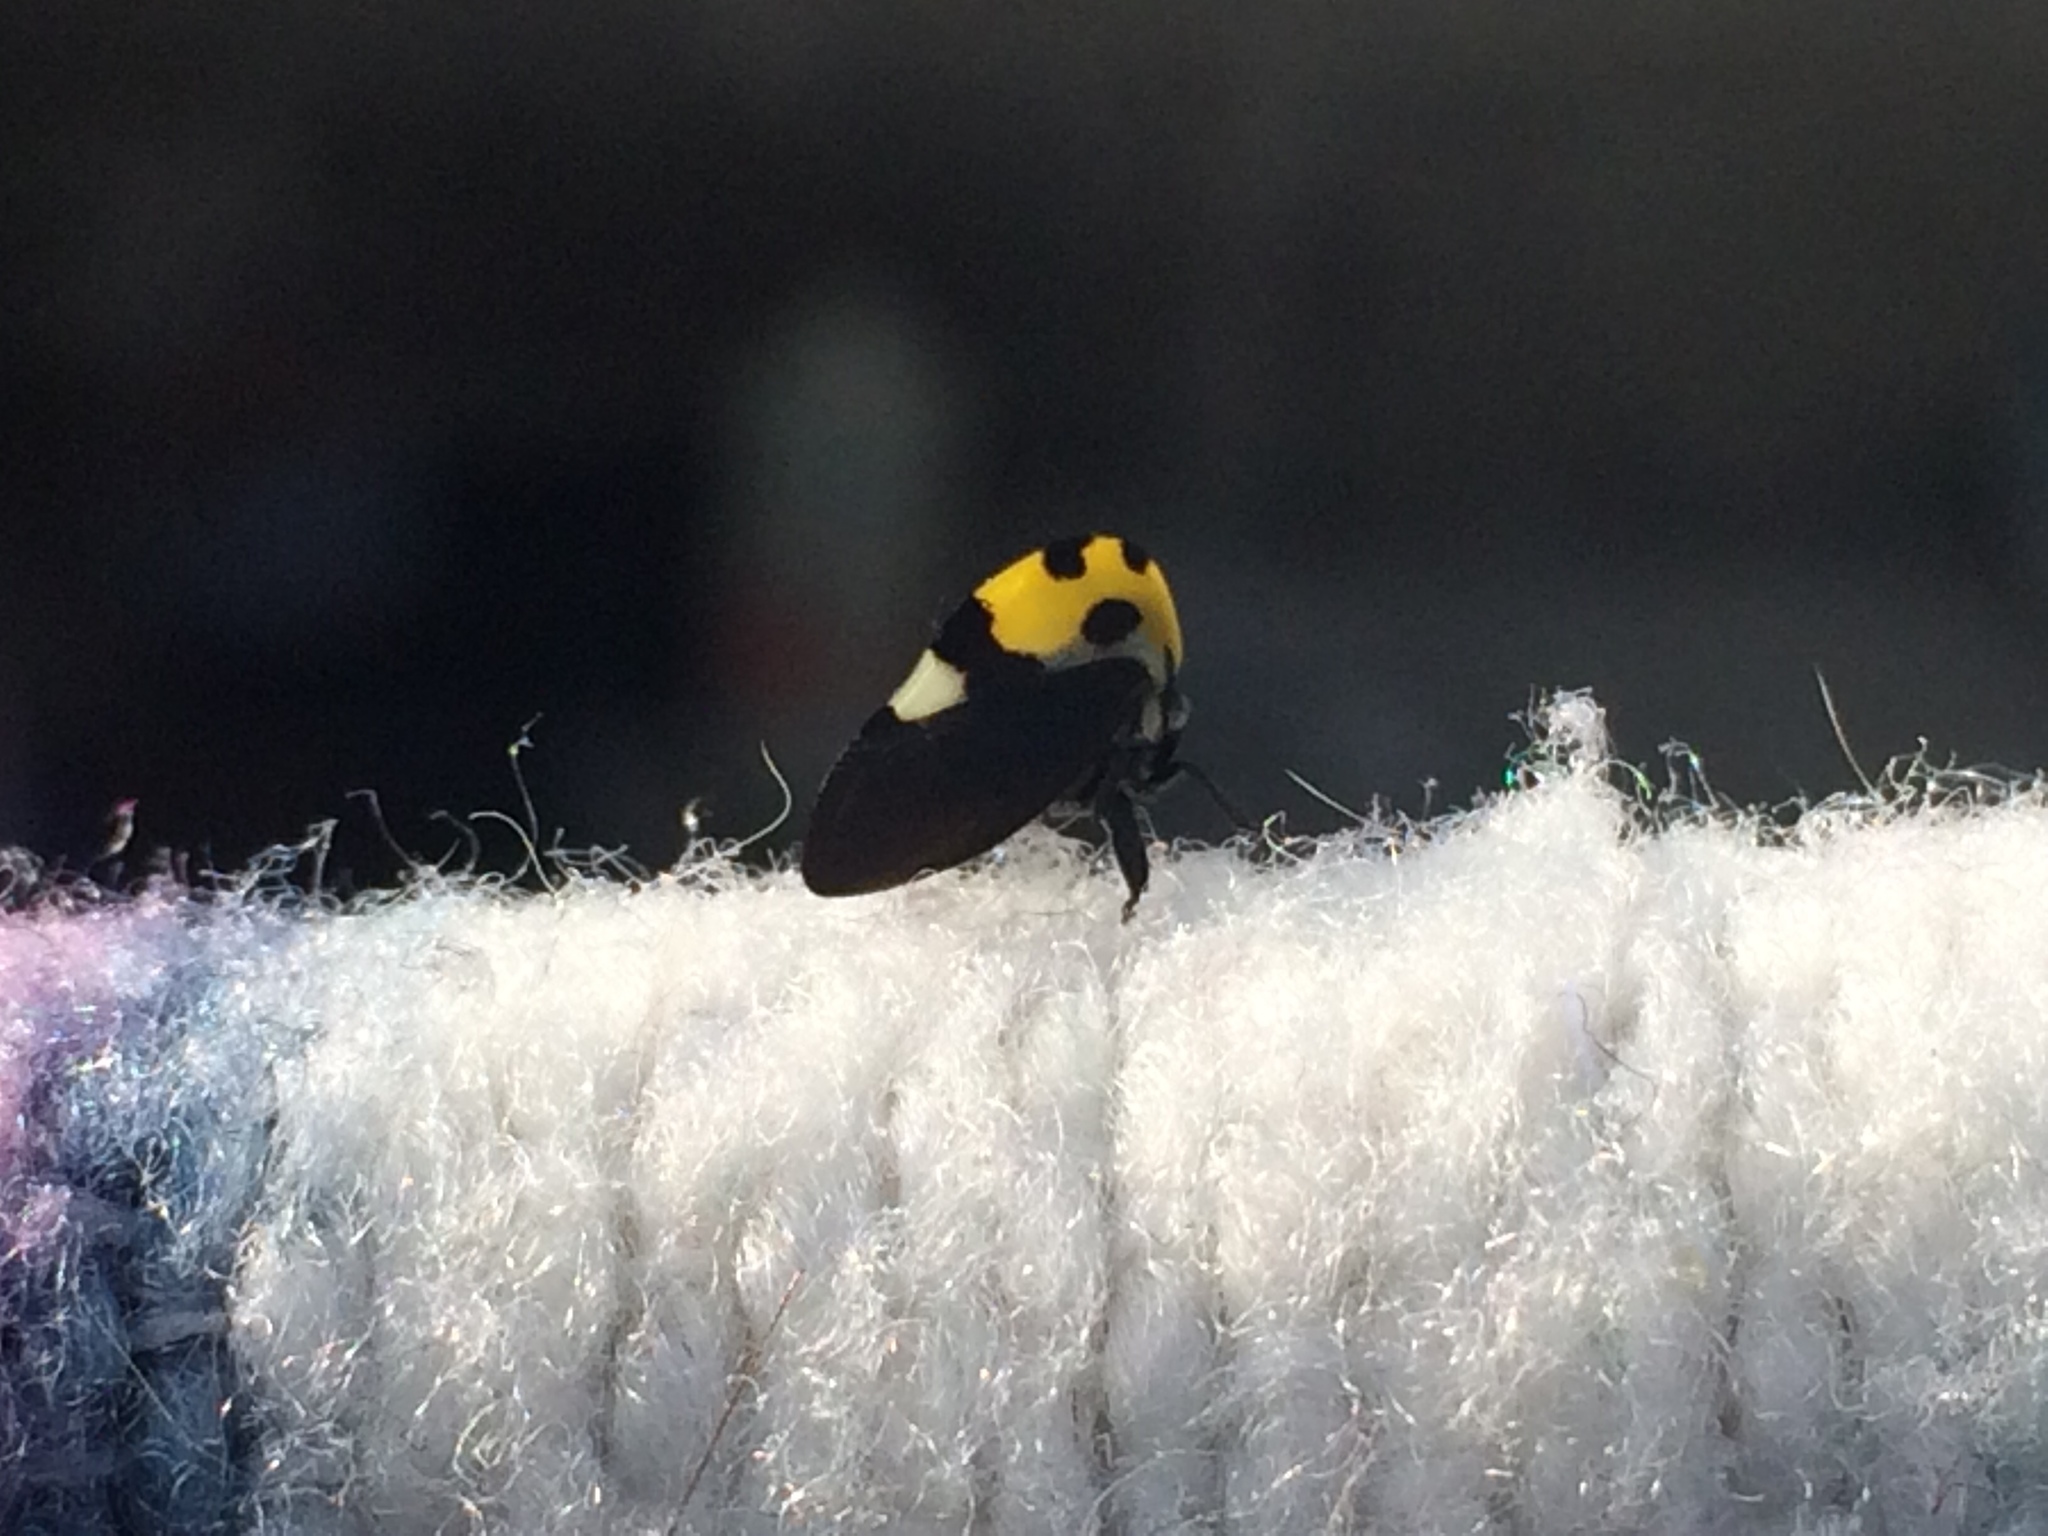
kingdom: Animalia
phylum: Arthropoda
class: Insecta
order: Hemiptera
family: Membracidae
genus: Membracis
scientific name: Membracis mexicana
